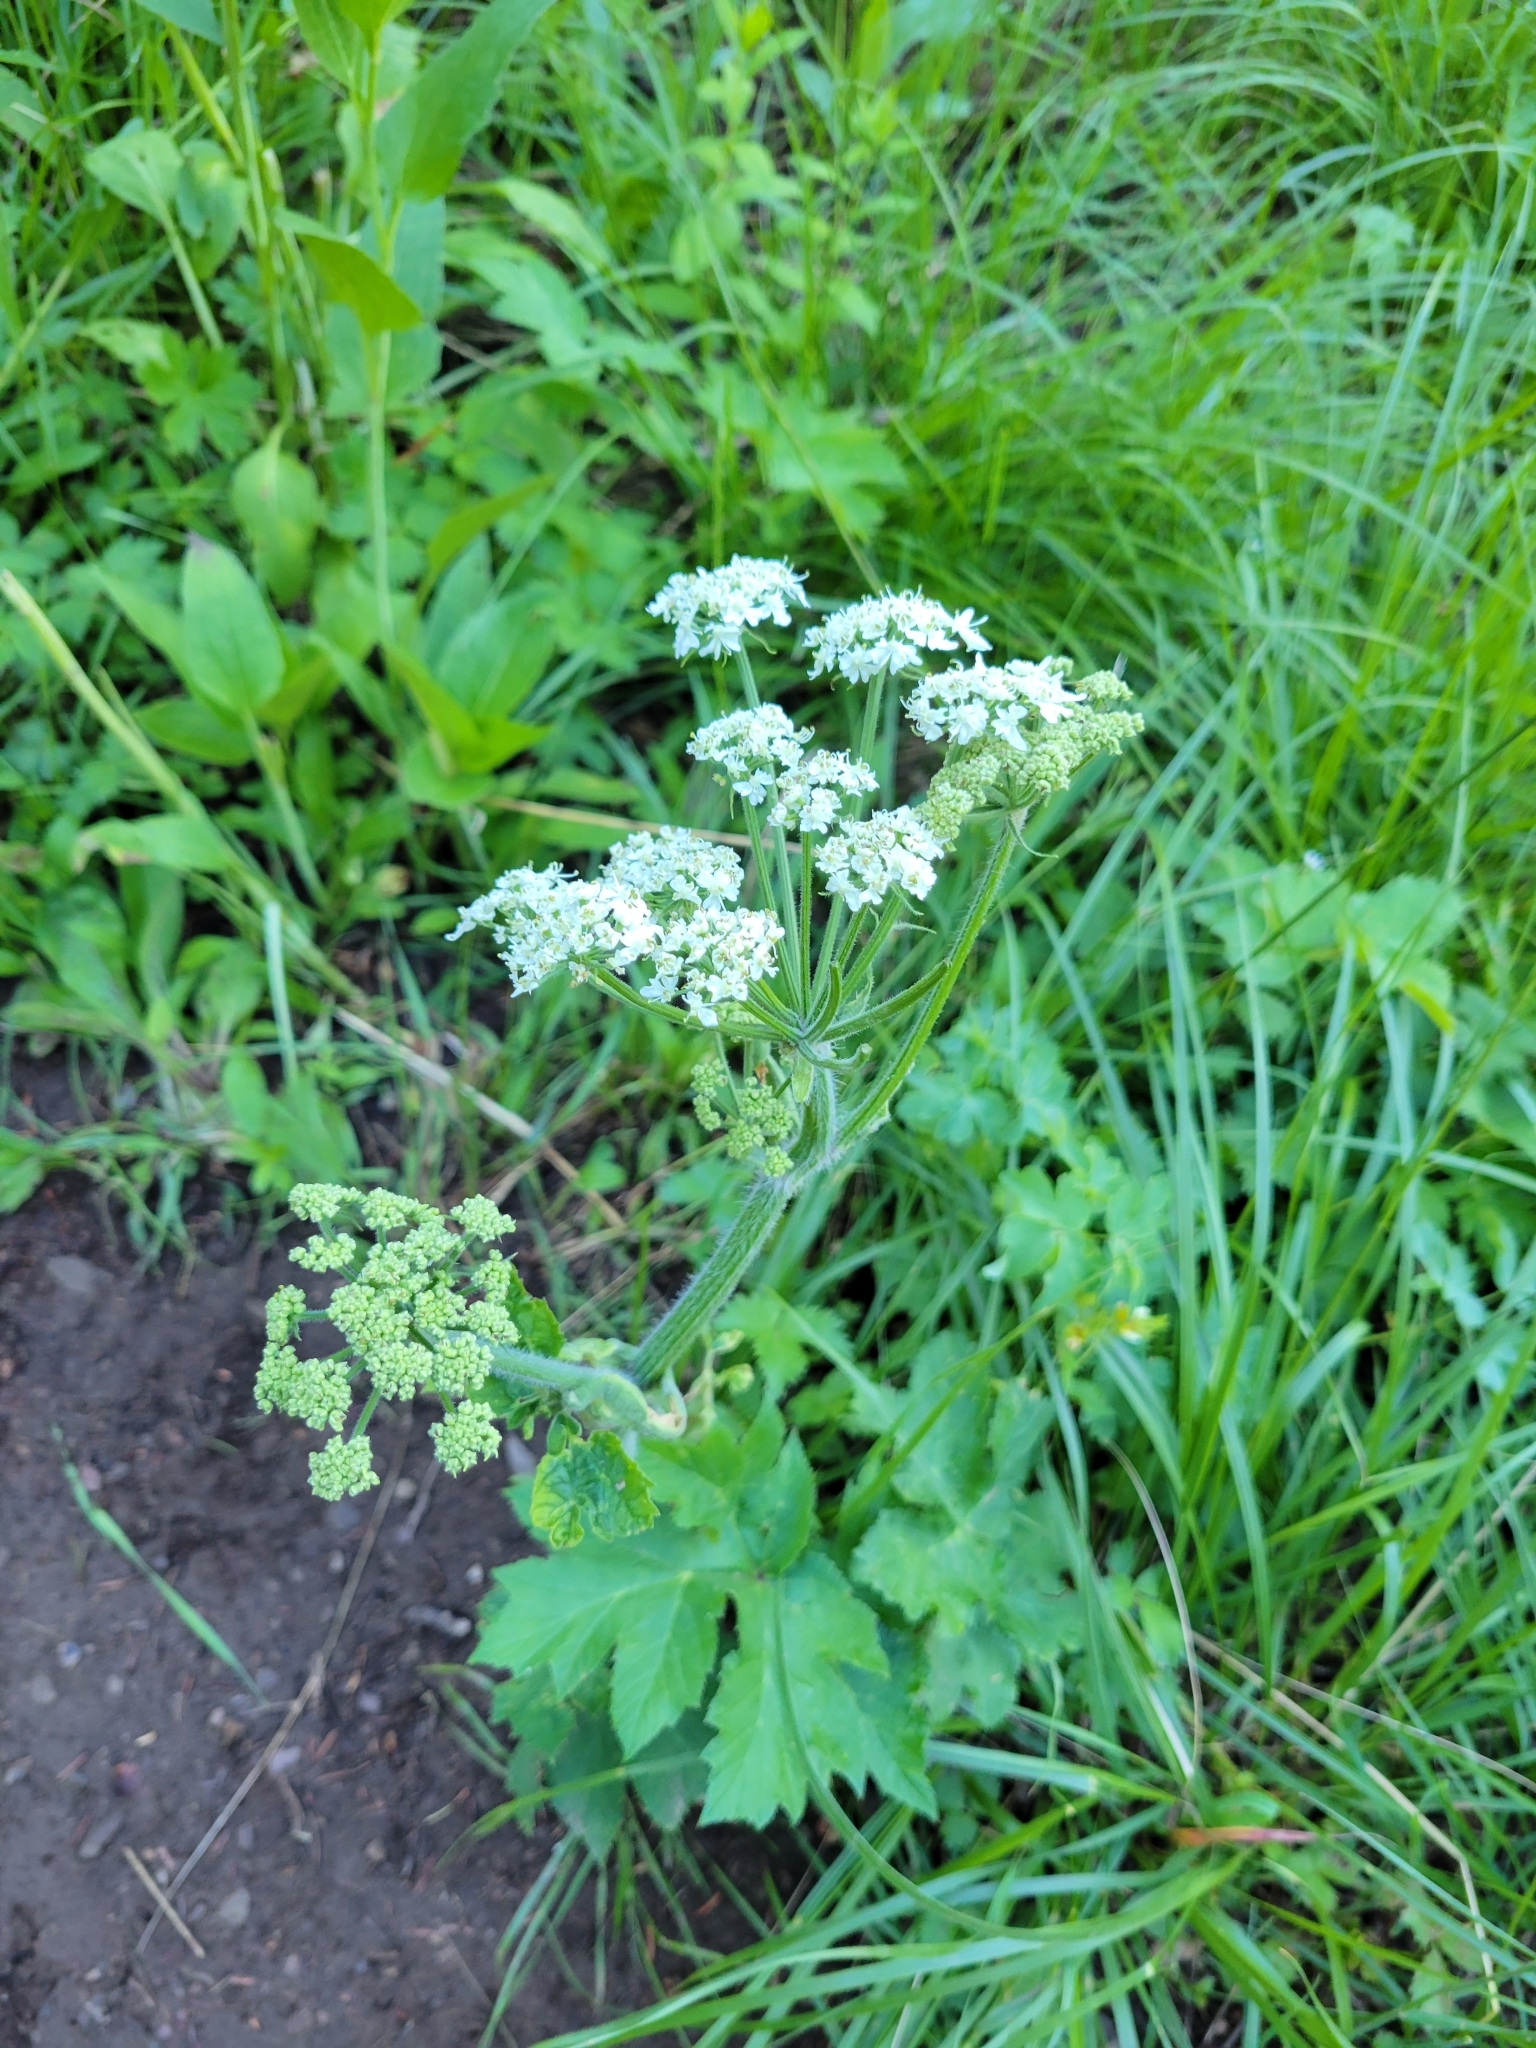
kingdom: Plantae
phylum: Tracheophyta
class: Magnoliopsida
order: Apiales
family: Apiaceae
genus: Heracleum
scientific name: Heracleum maximum
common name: American cow parsnip
